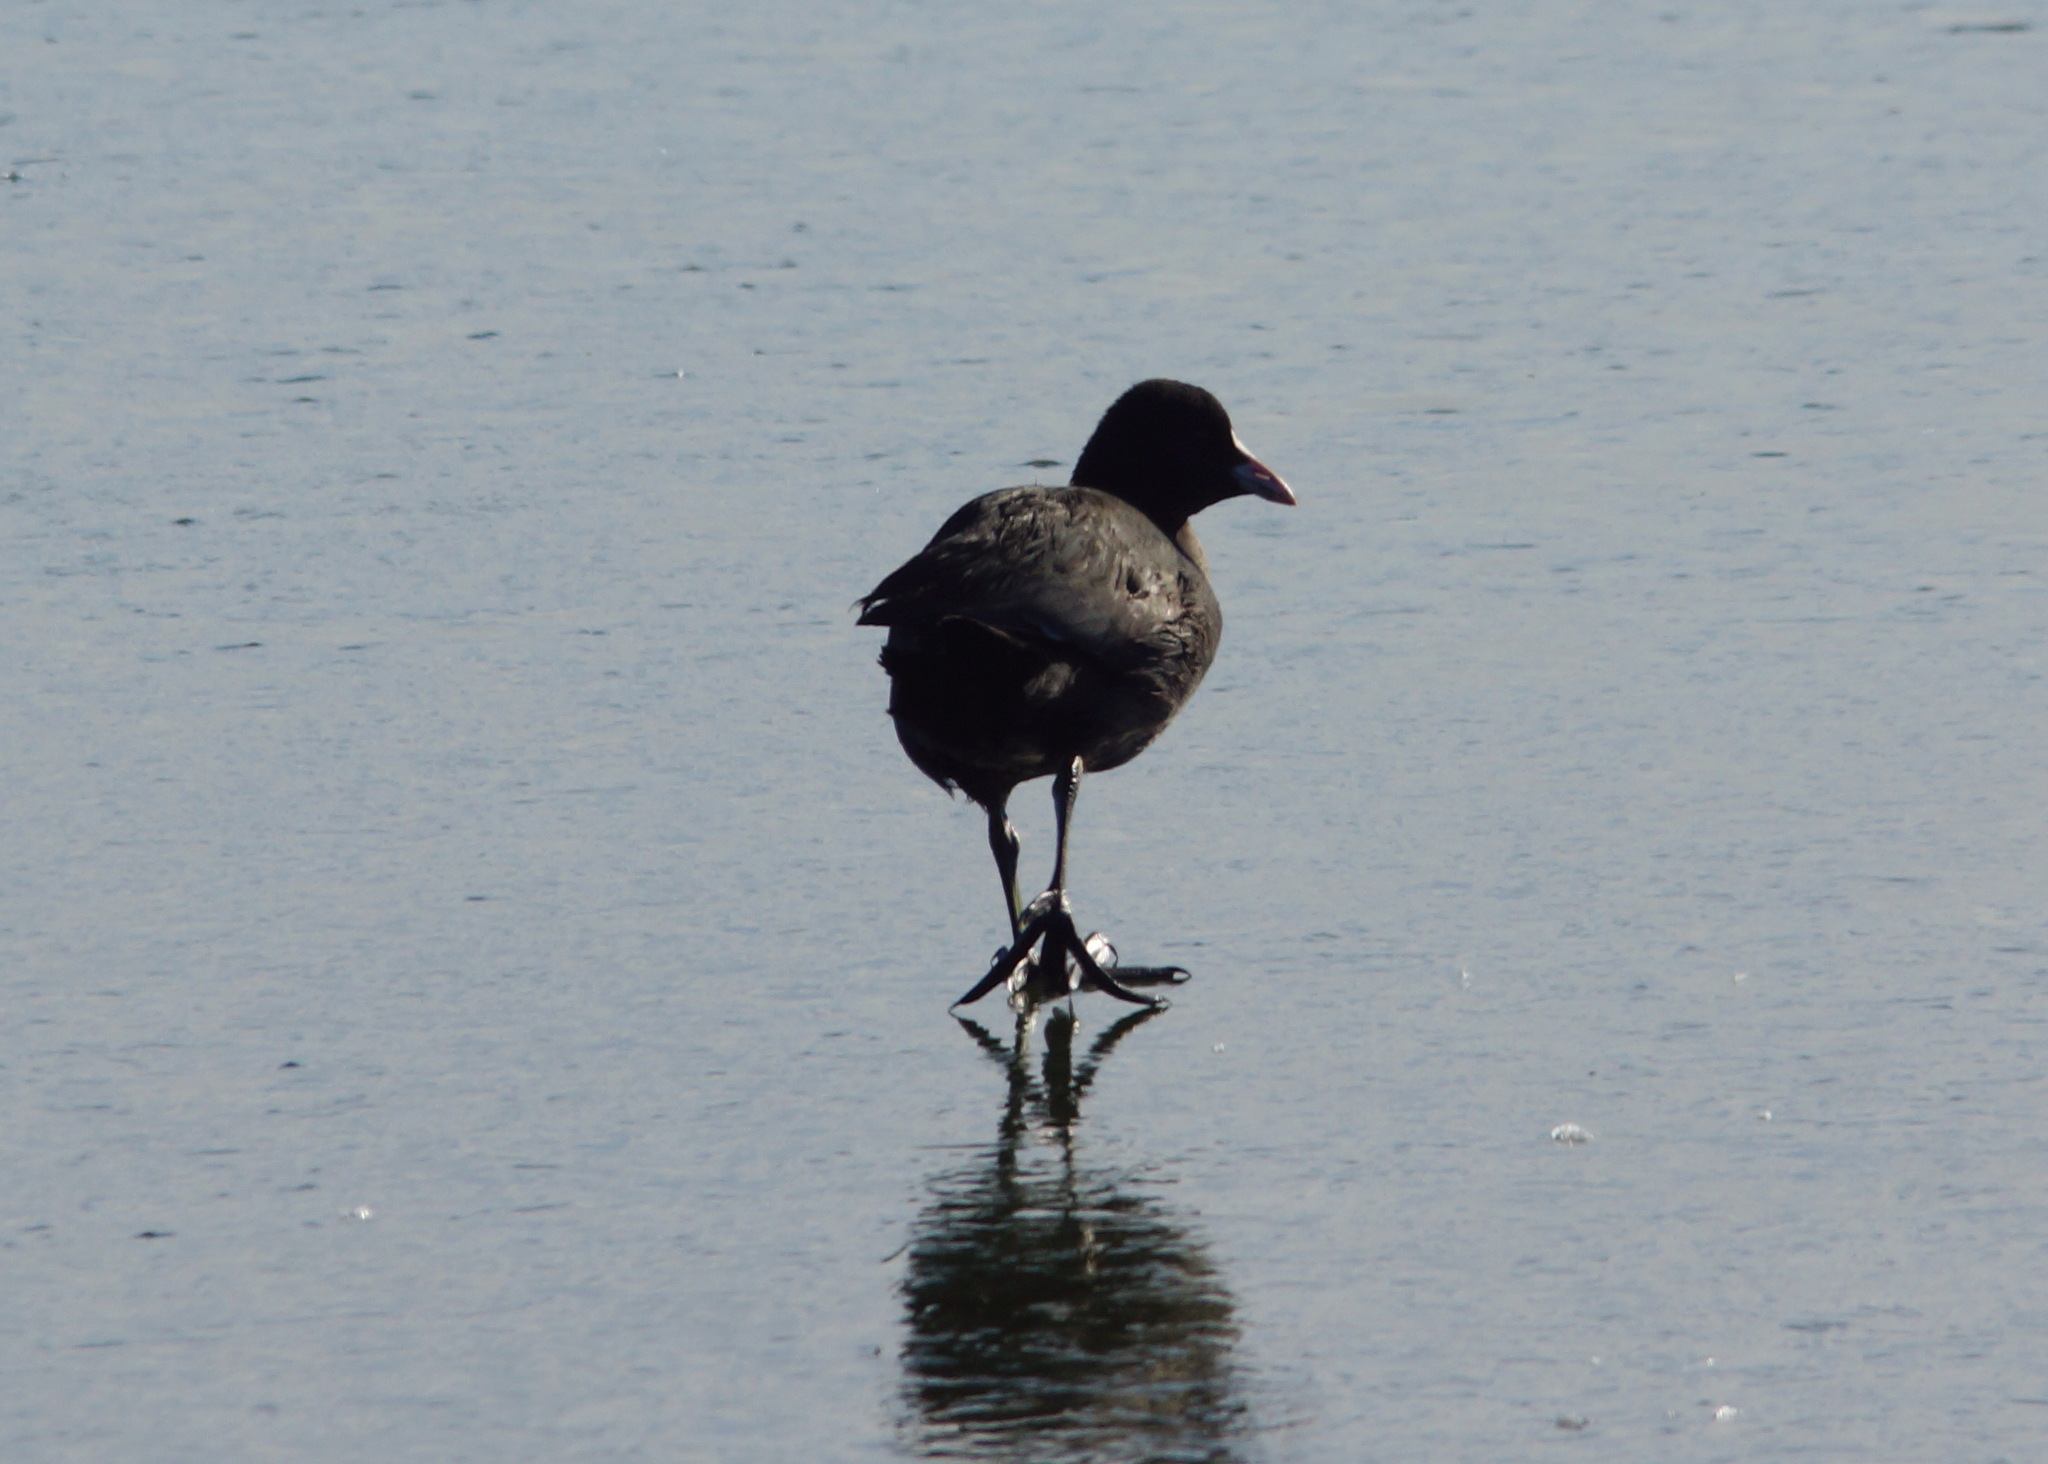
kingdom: Animalia
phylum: Chordata
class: Aves
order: Gruiformes
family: Rallidae
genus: Fulica
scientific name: Fulica atra
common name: Eurasian coot
